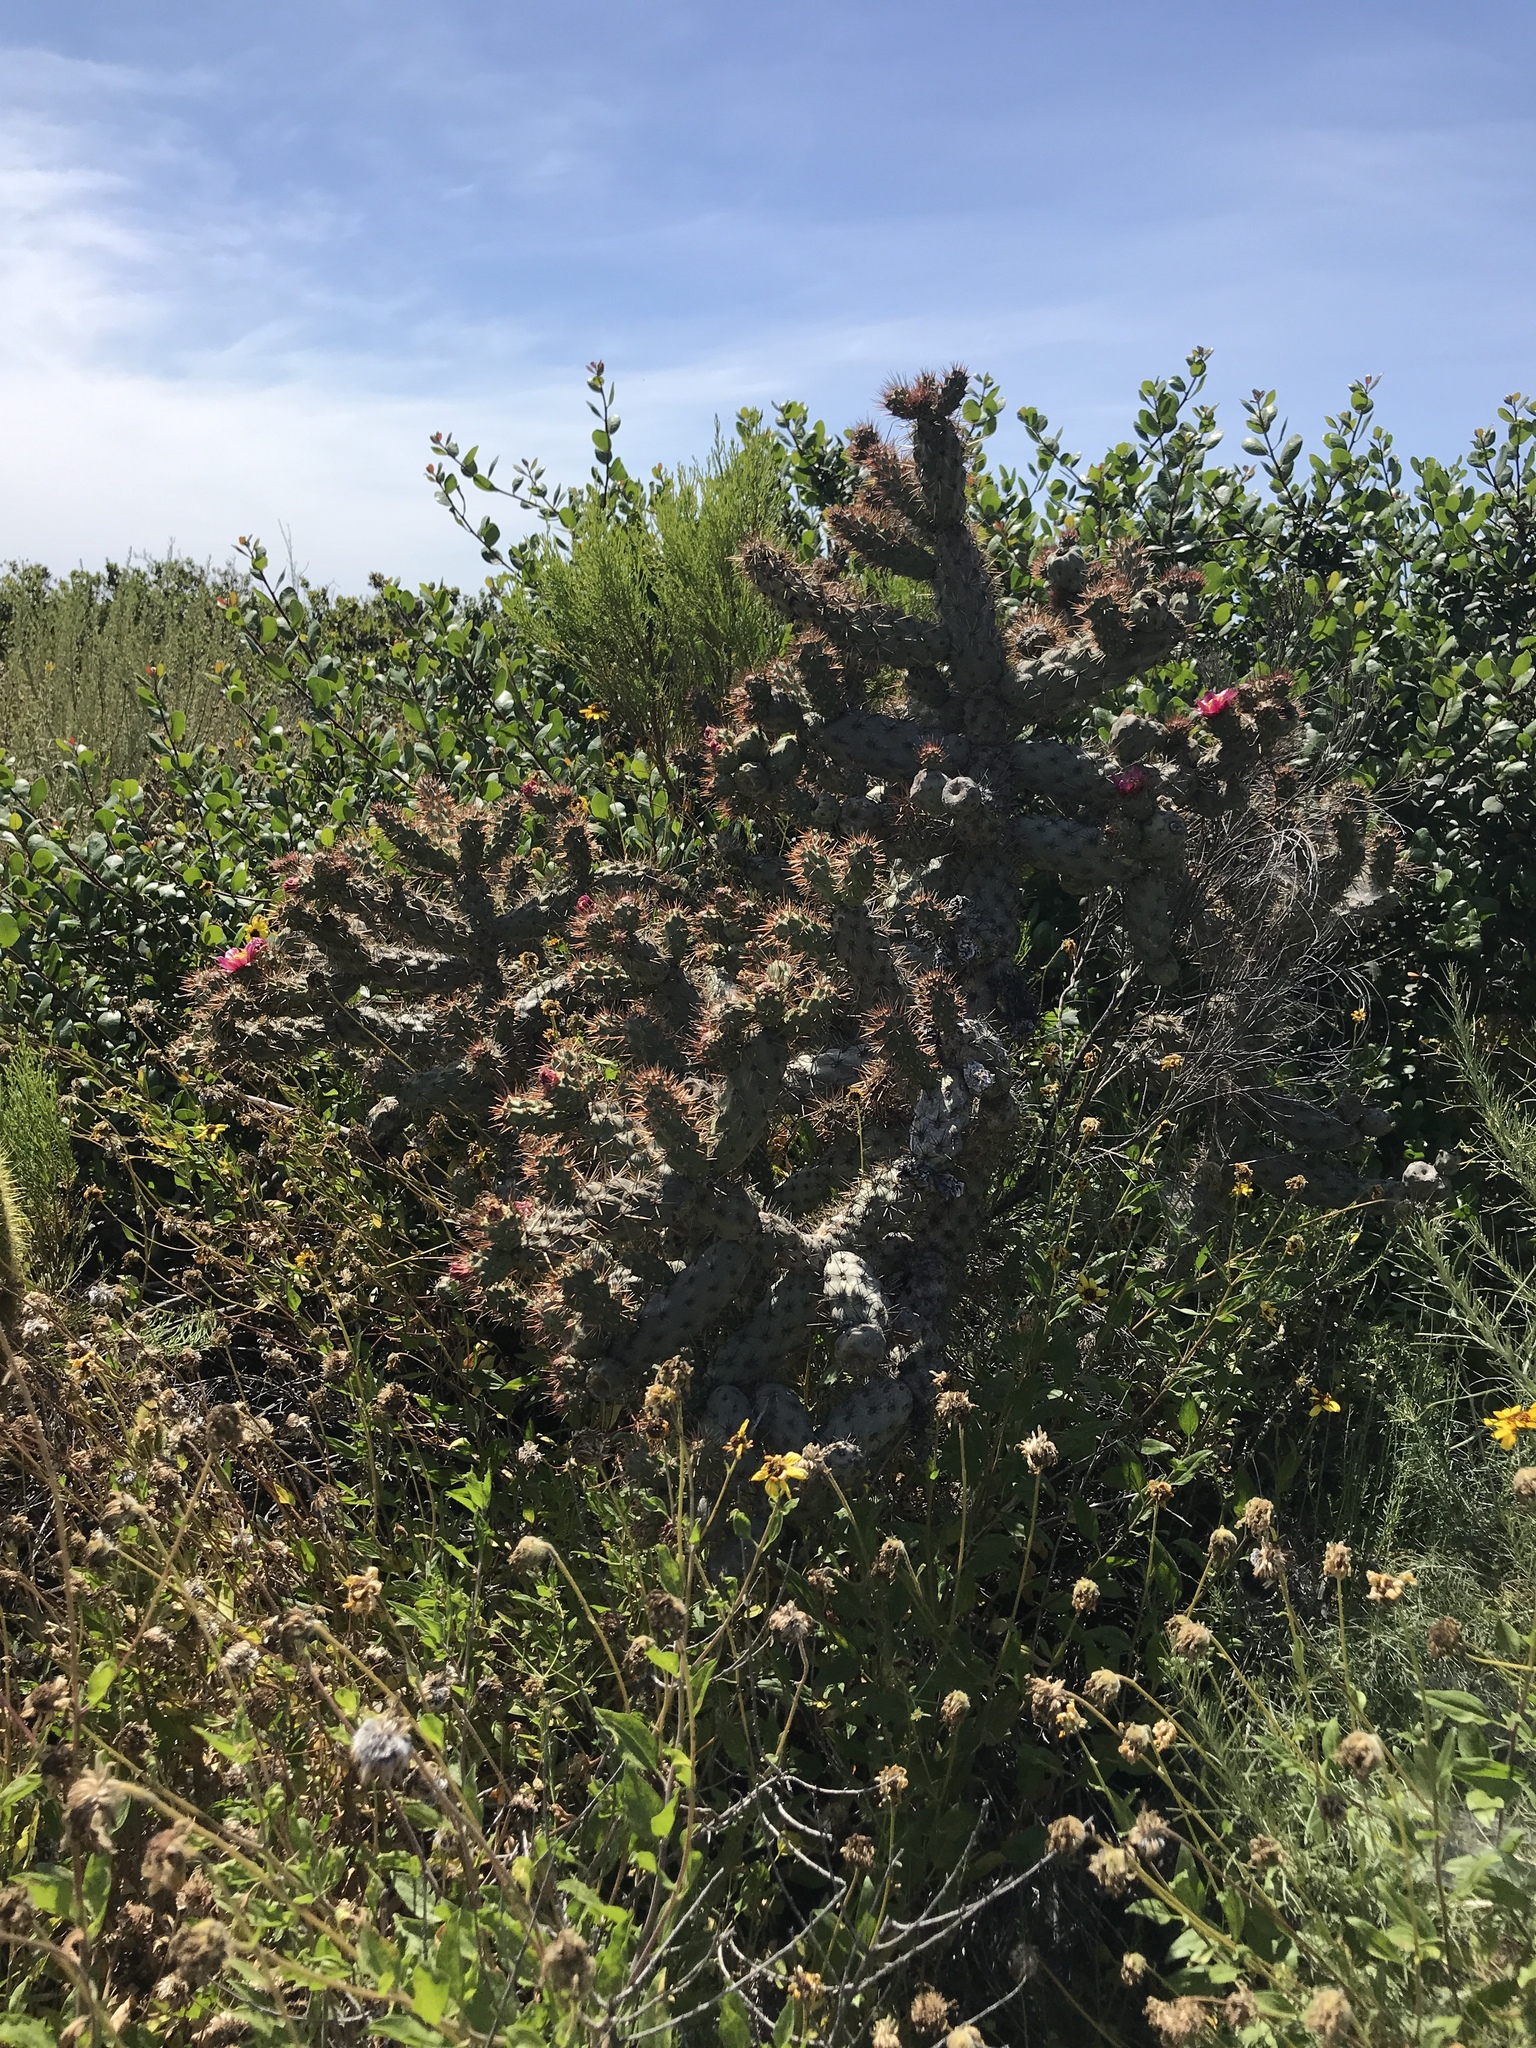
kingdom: Plantae
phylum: Tracheophyta
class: Magnoliopsida
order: Caryophyllales
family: Cactaceae
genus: Cylindropuntia
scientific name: Cylindropuntia prolifera
